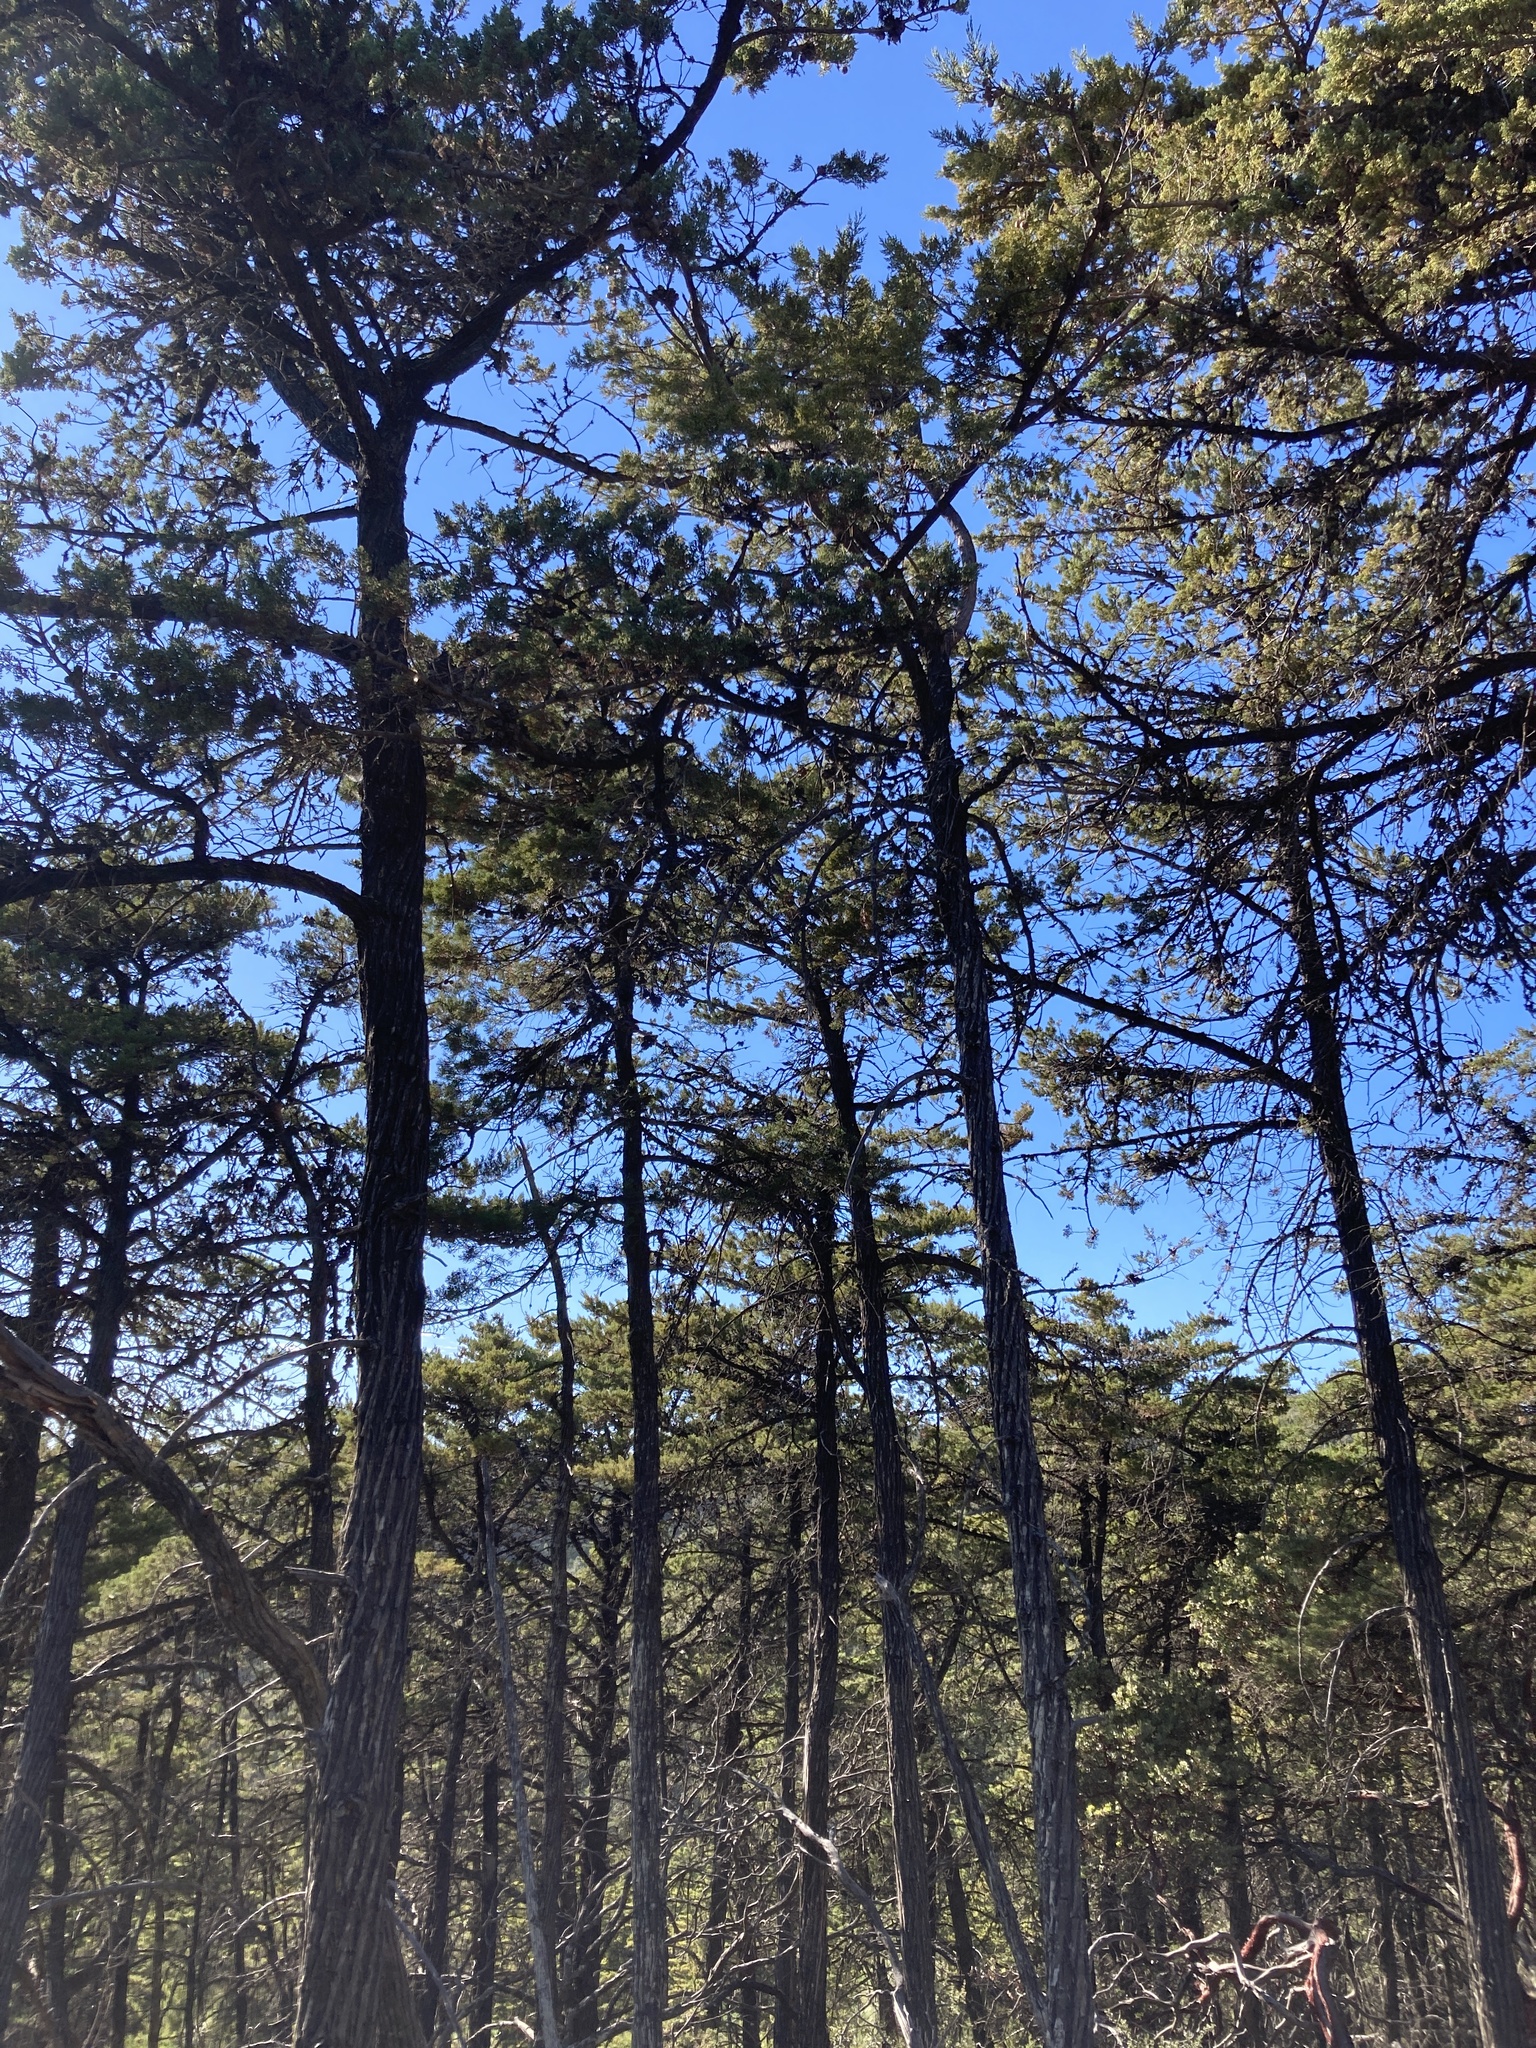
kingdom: Plantae
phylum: Tracheophyta
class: Pinopsida
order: Pinales
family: Cupressaceae
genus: Cupressus
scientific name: Cupressus sargentii
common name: Sargent cypress
